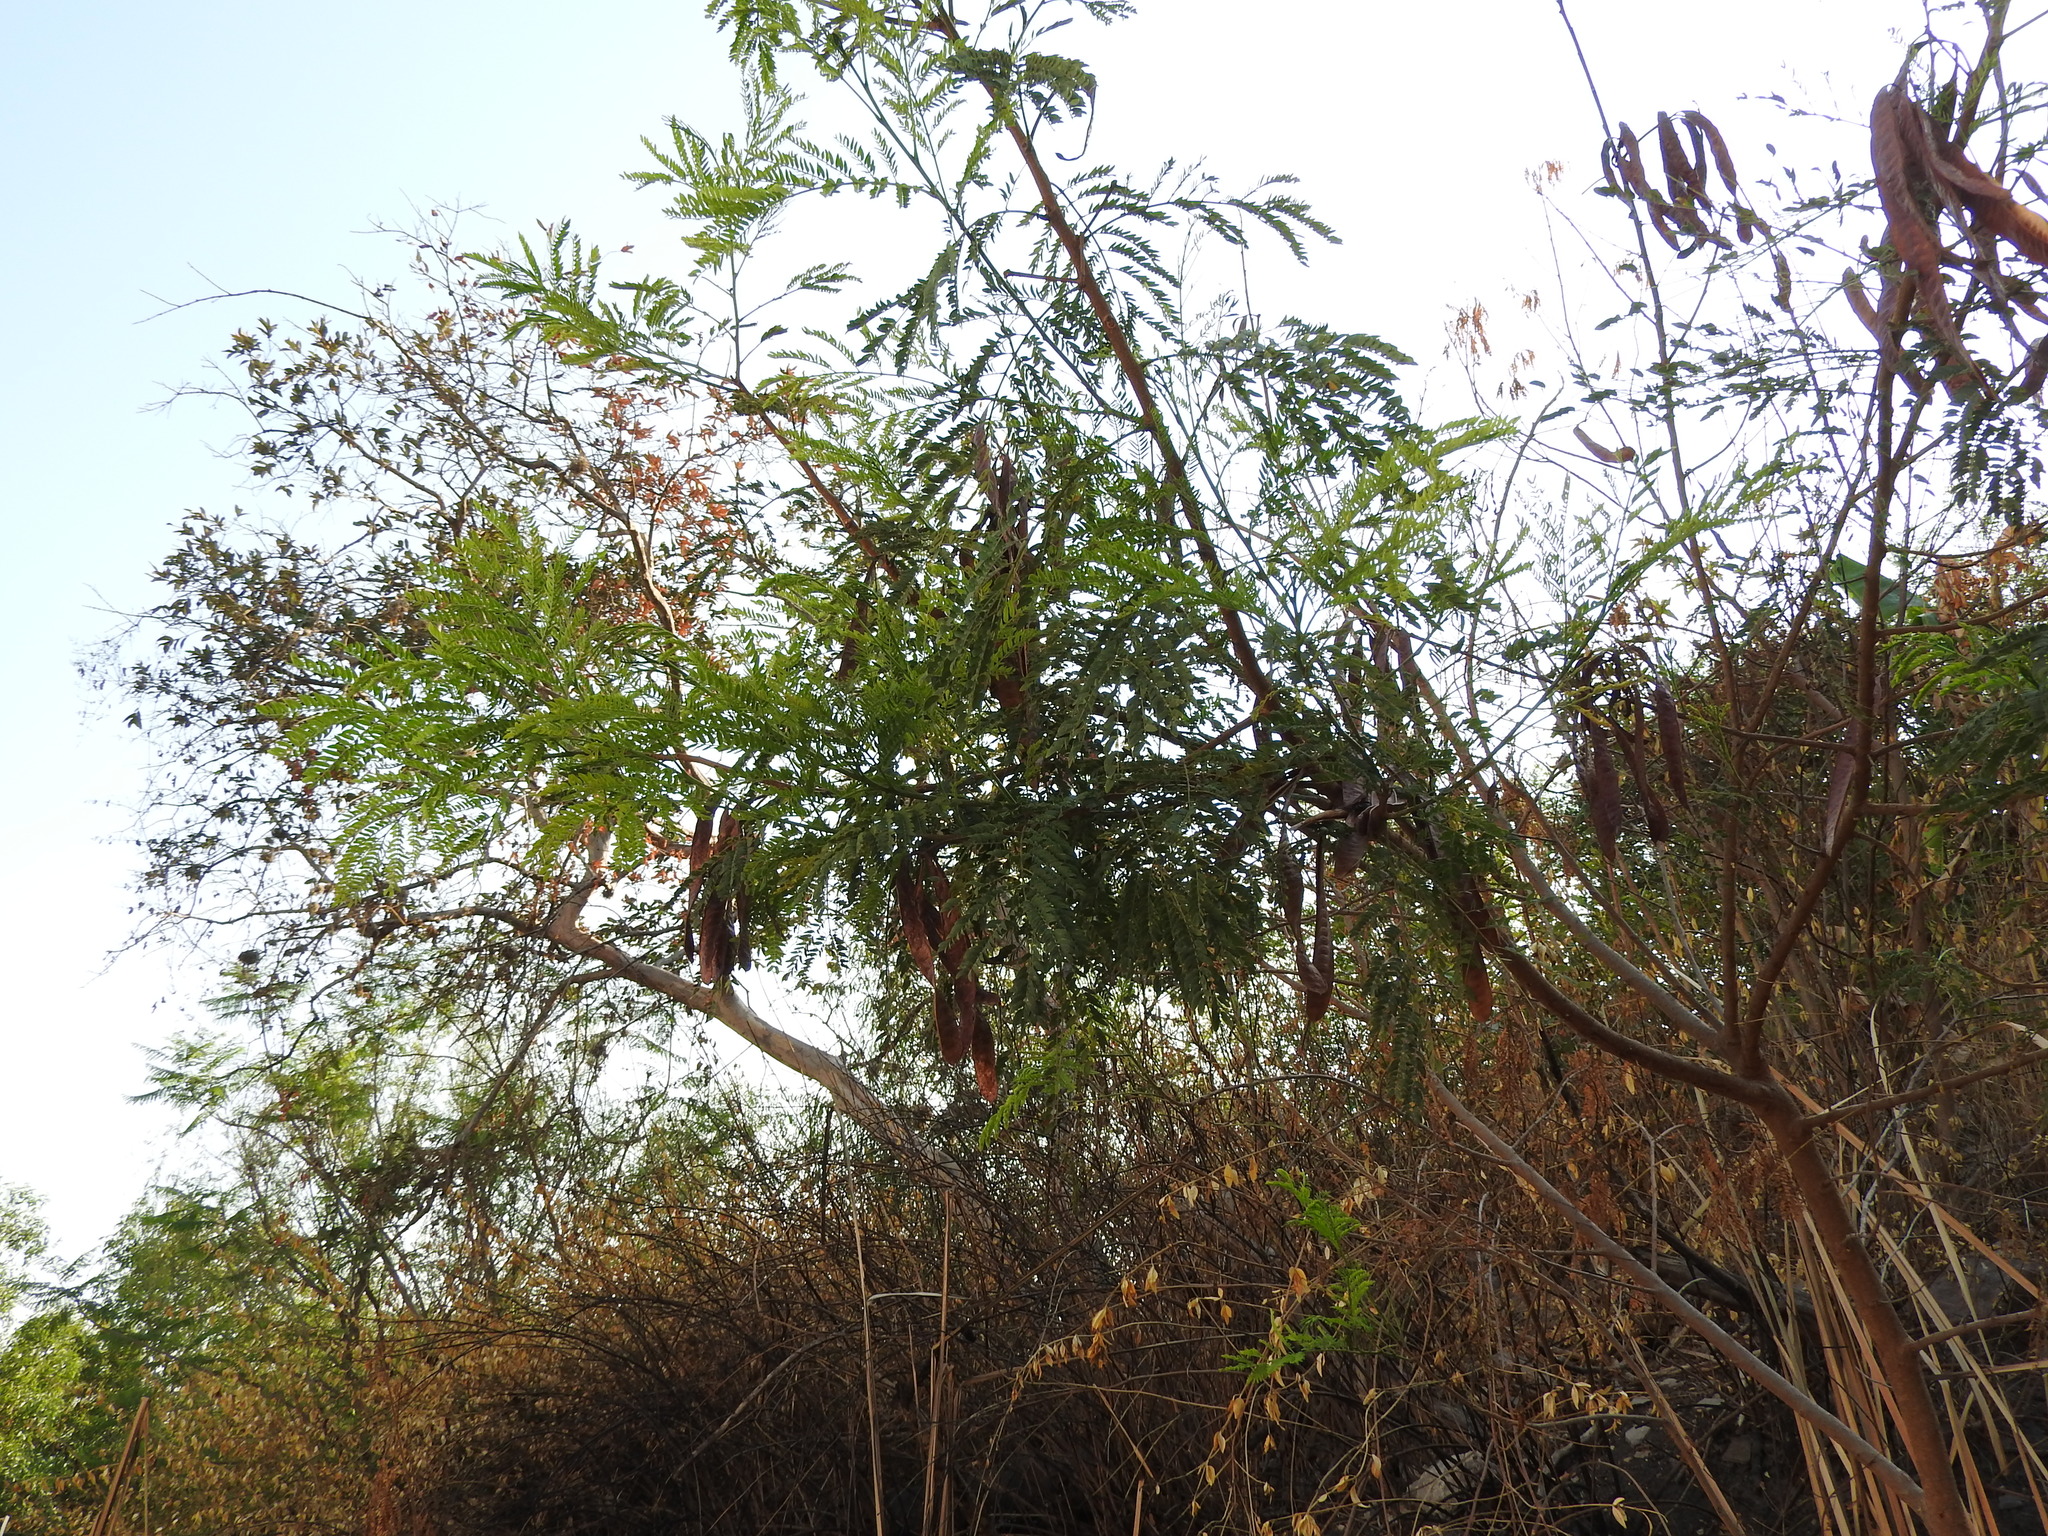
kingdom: Plantae
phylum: Tracheophyta
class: Magnoliopsida
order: Fabales
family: Fabaceae
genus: Leucaena
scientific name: Leucaena leucocephala
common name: White leadtree
